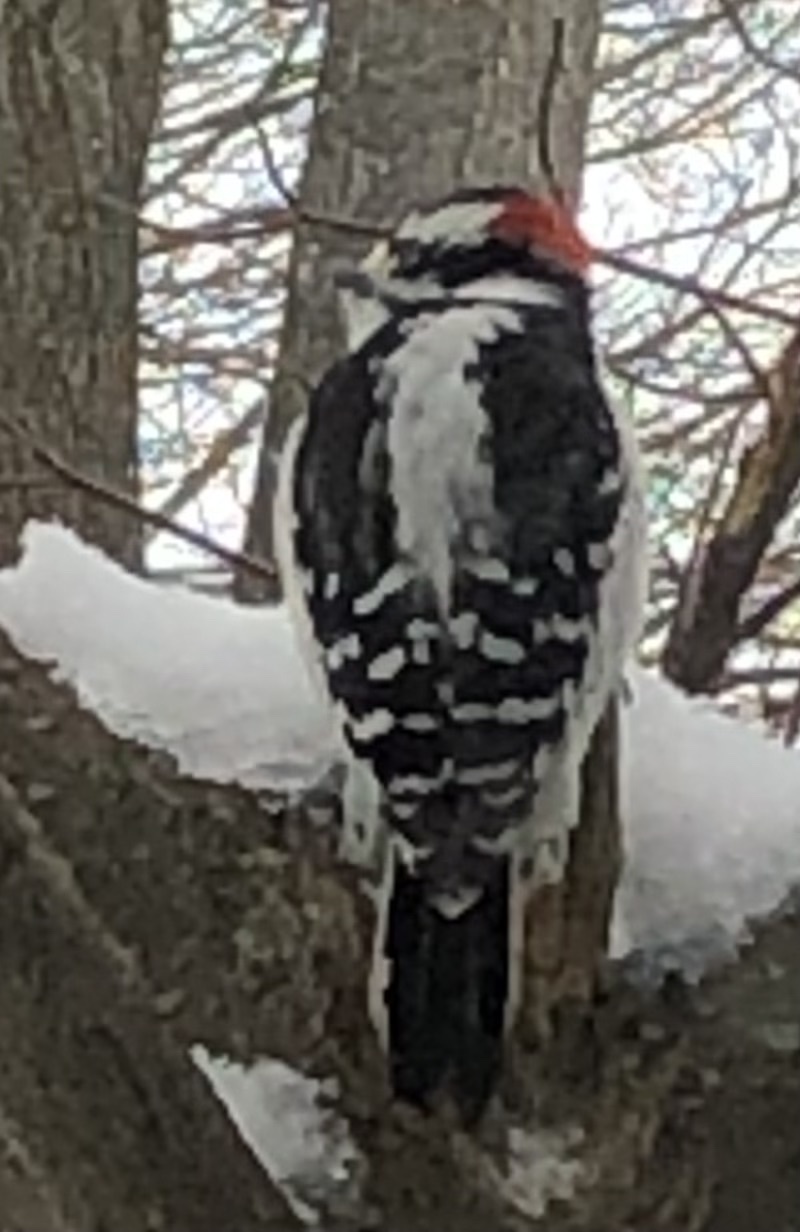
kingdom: Animalia
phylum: Chordata
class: Aves
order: Piciformes
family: Picidae
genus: Leuconotopicus
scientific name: Leuconotopicus villosus
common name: Hairy woodpecker
